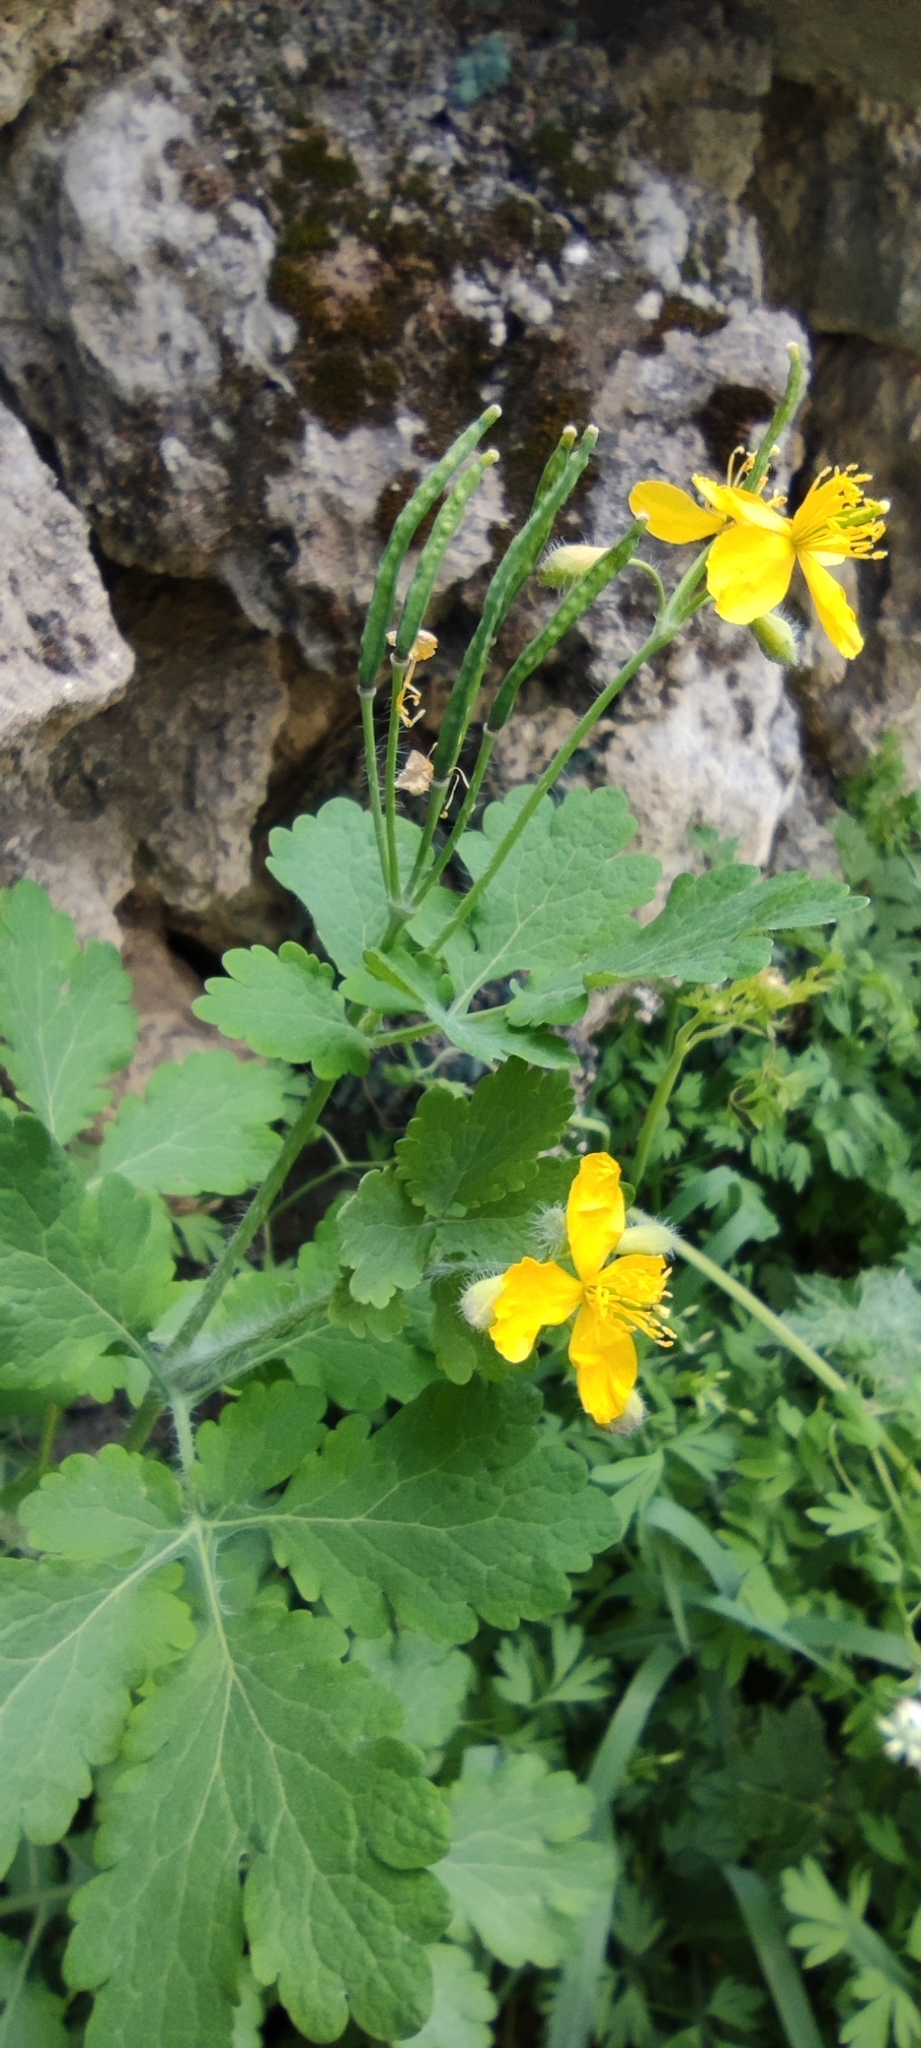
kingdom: Plantae
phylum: Tracheophyta
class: Magnoliopsida
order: Ranunculales
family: Papaveraceae
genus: Chelidonium
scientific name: Chelidonium majus
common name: Greater celandine
